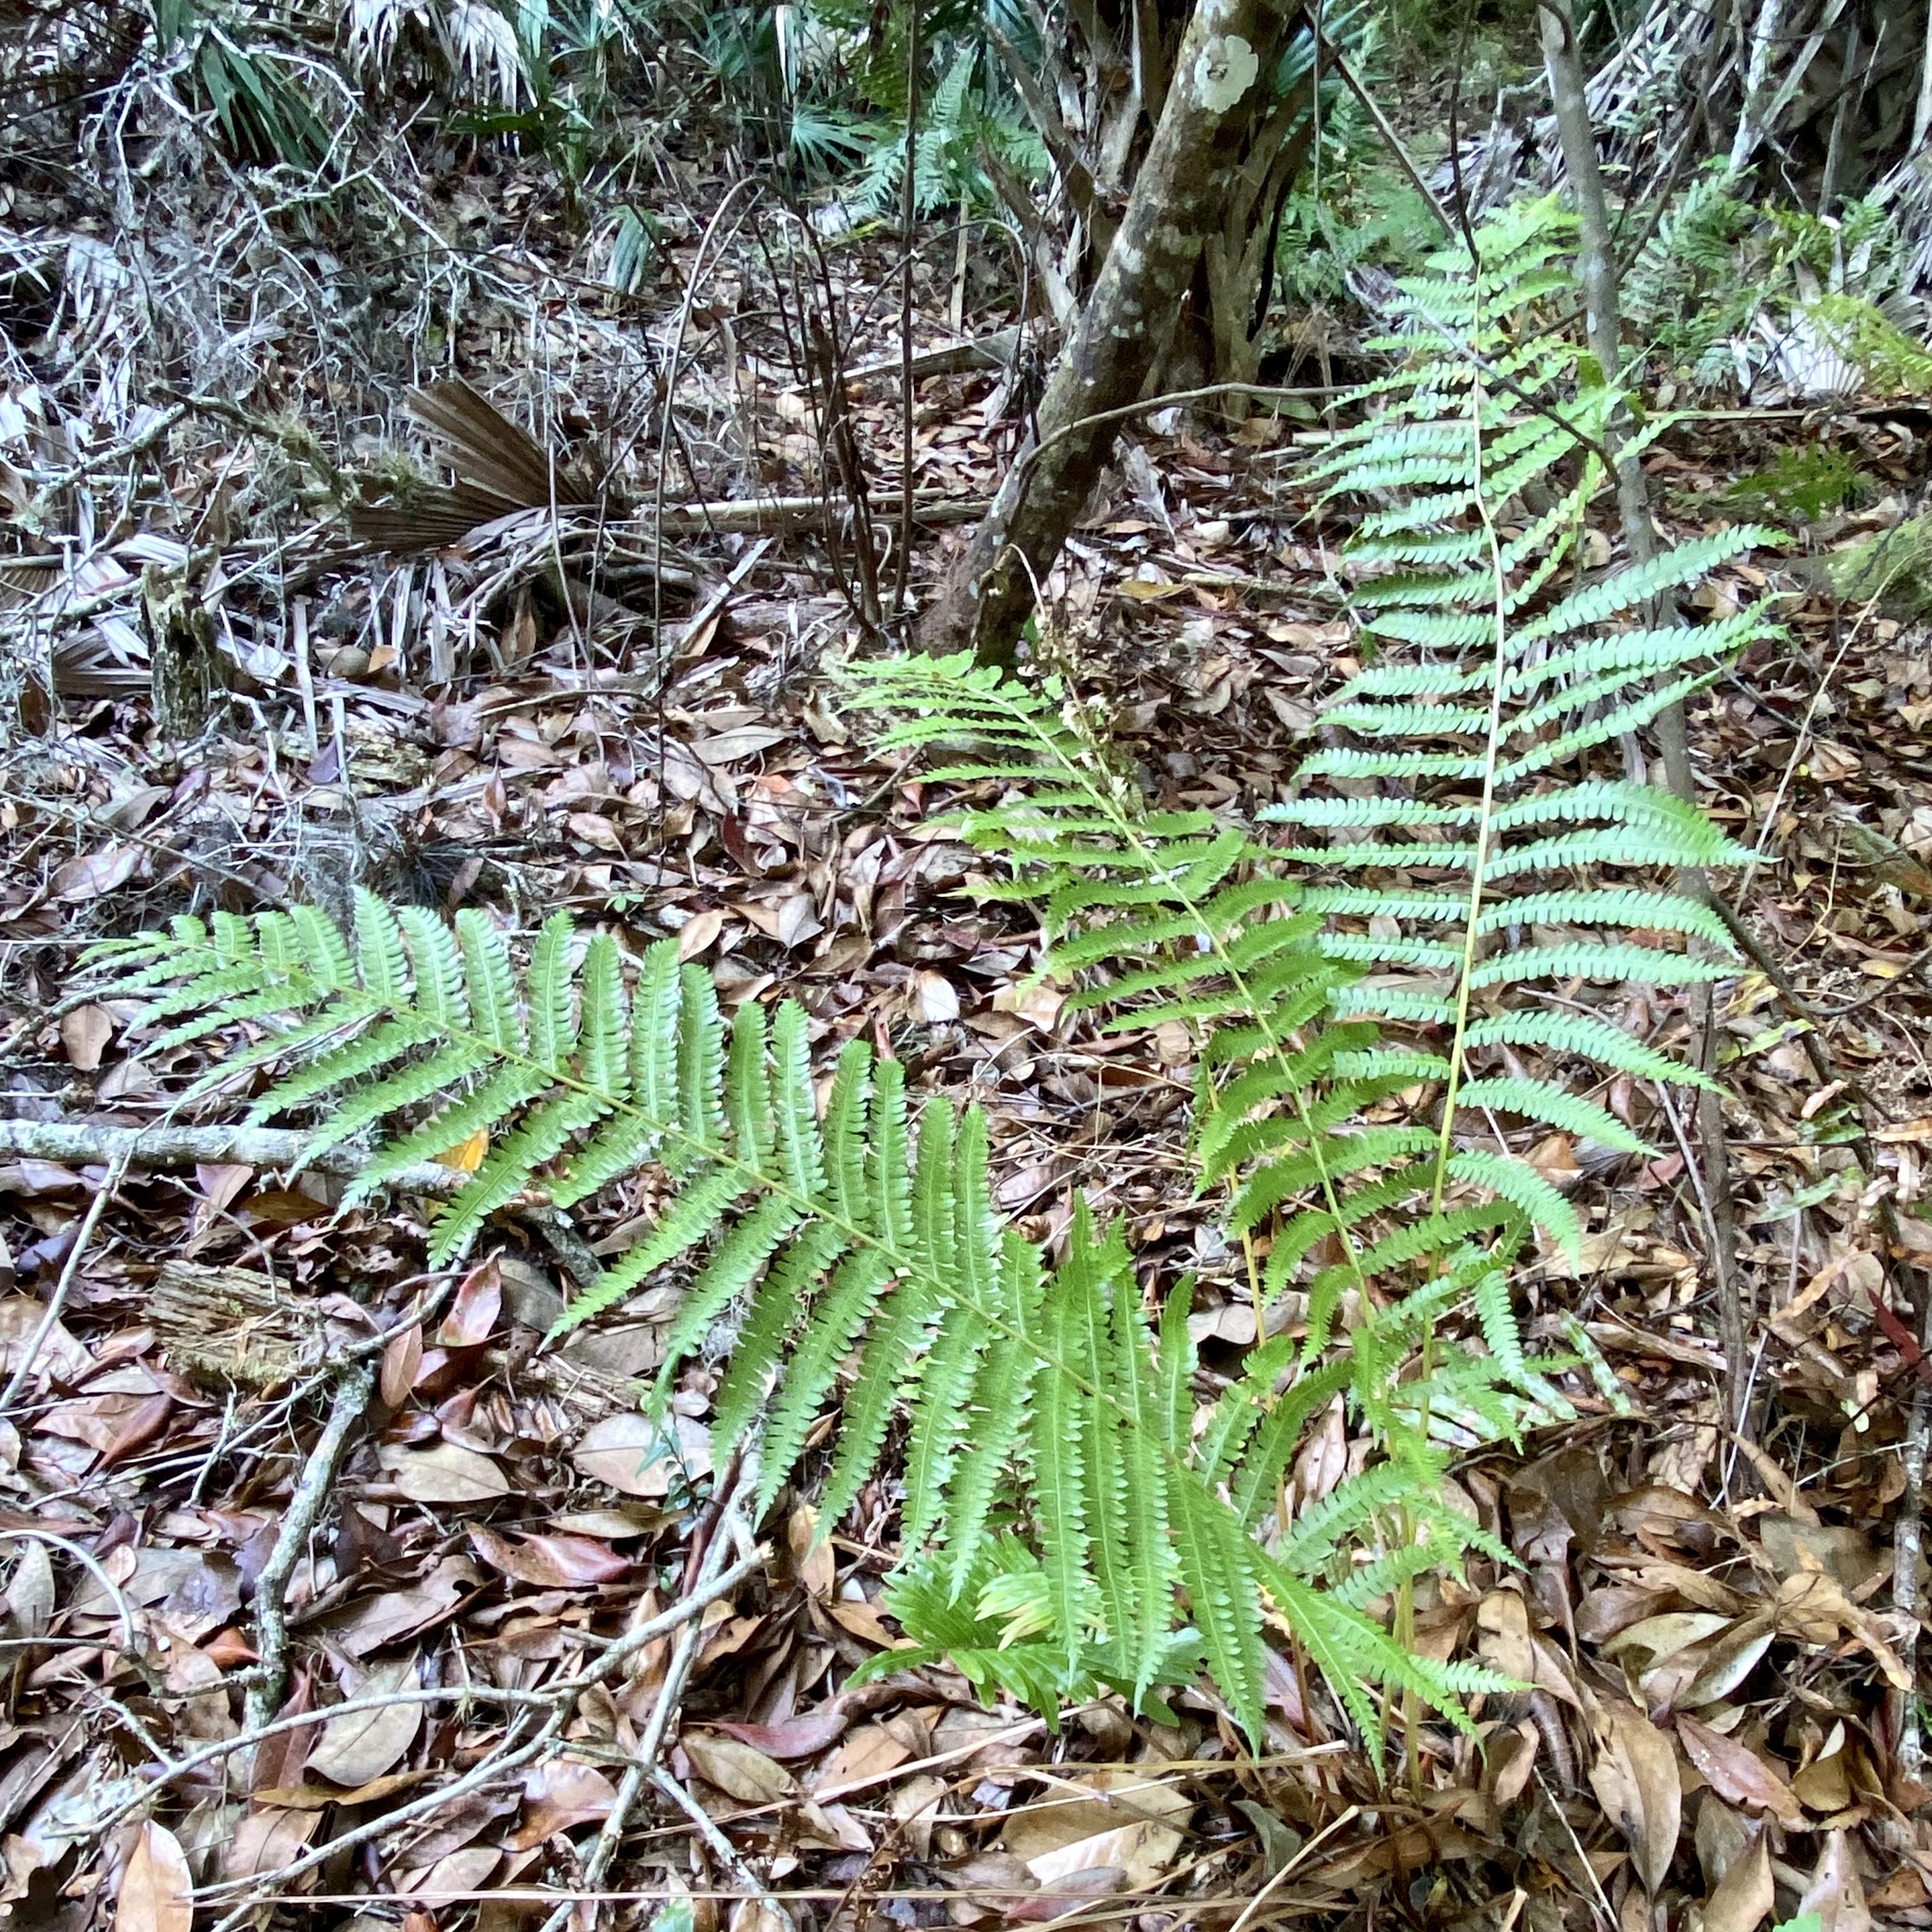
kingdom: Plantae
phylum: Tracheophyta
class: Polypodiopsida
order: Osmundales
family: Osmundaceae
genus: Osmundastrum
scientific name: Osmundastrum cinnamomeum
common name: Cinnamon fern
